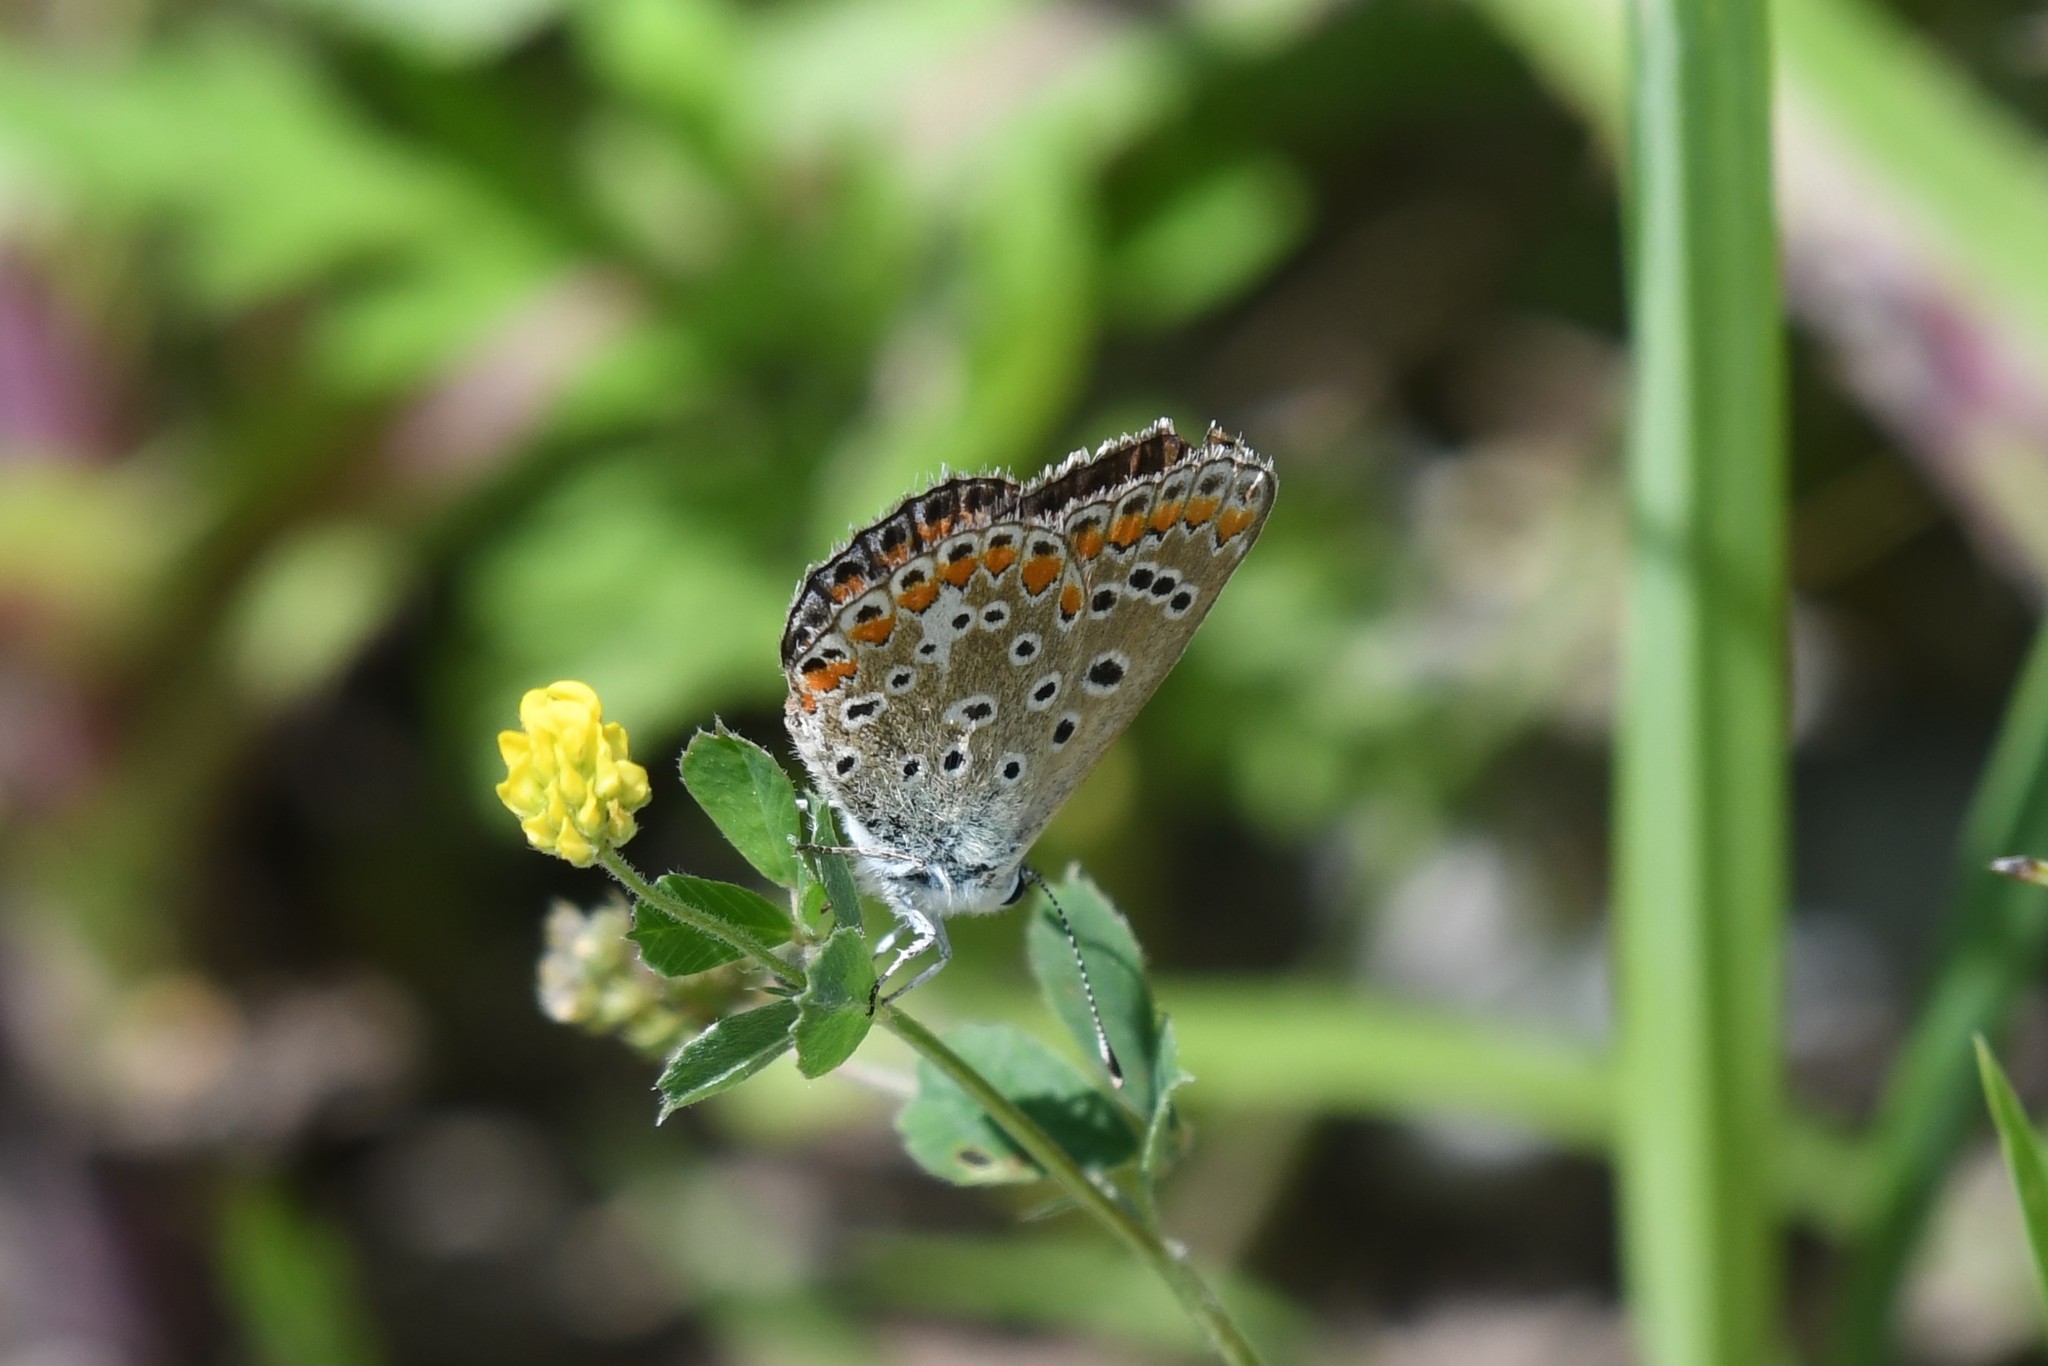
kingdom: Animalia
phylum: Arthropoda
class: Insecta
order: Lepidoptera
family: Lycaenidae
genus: Polyommatus
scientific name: Polyommatus icarus
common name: Common blue
